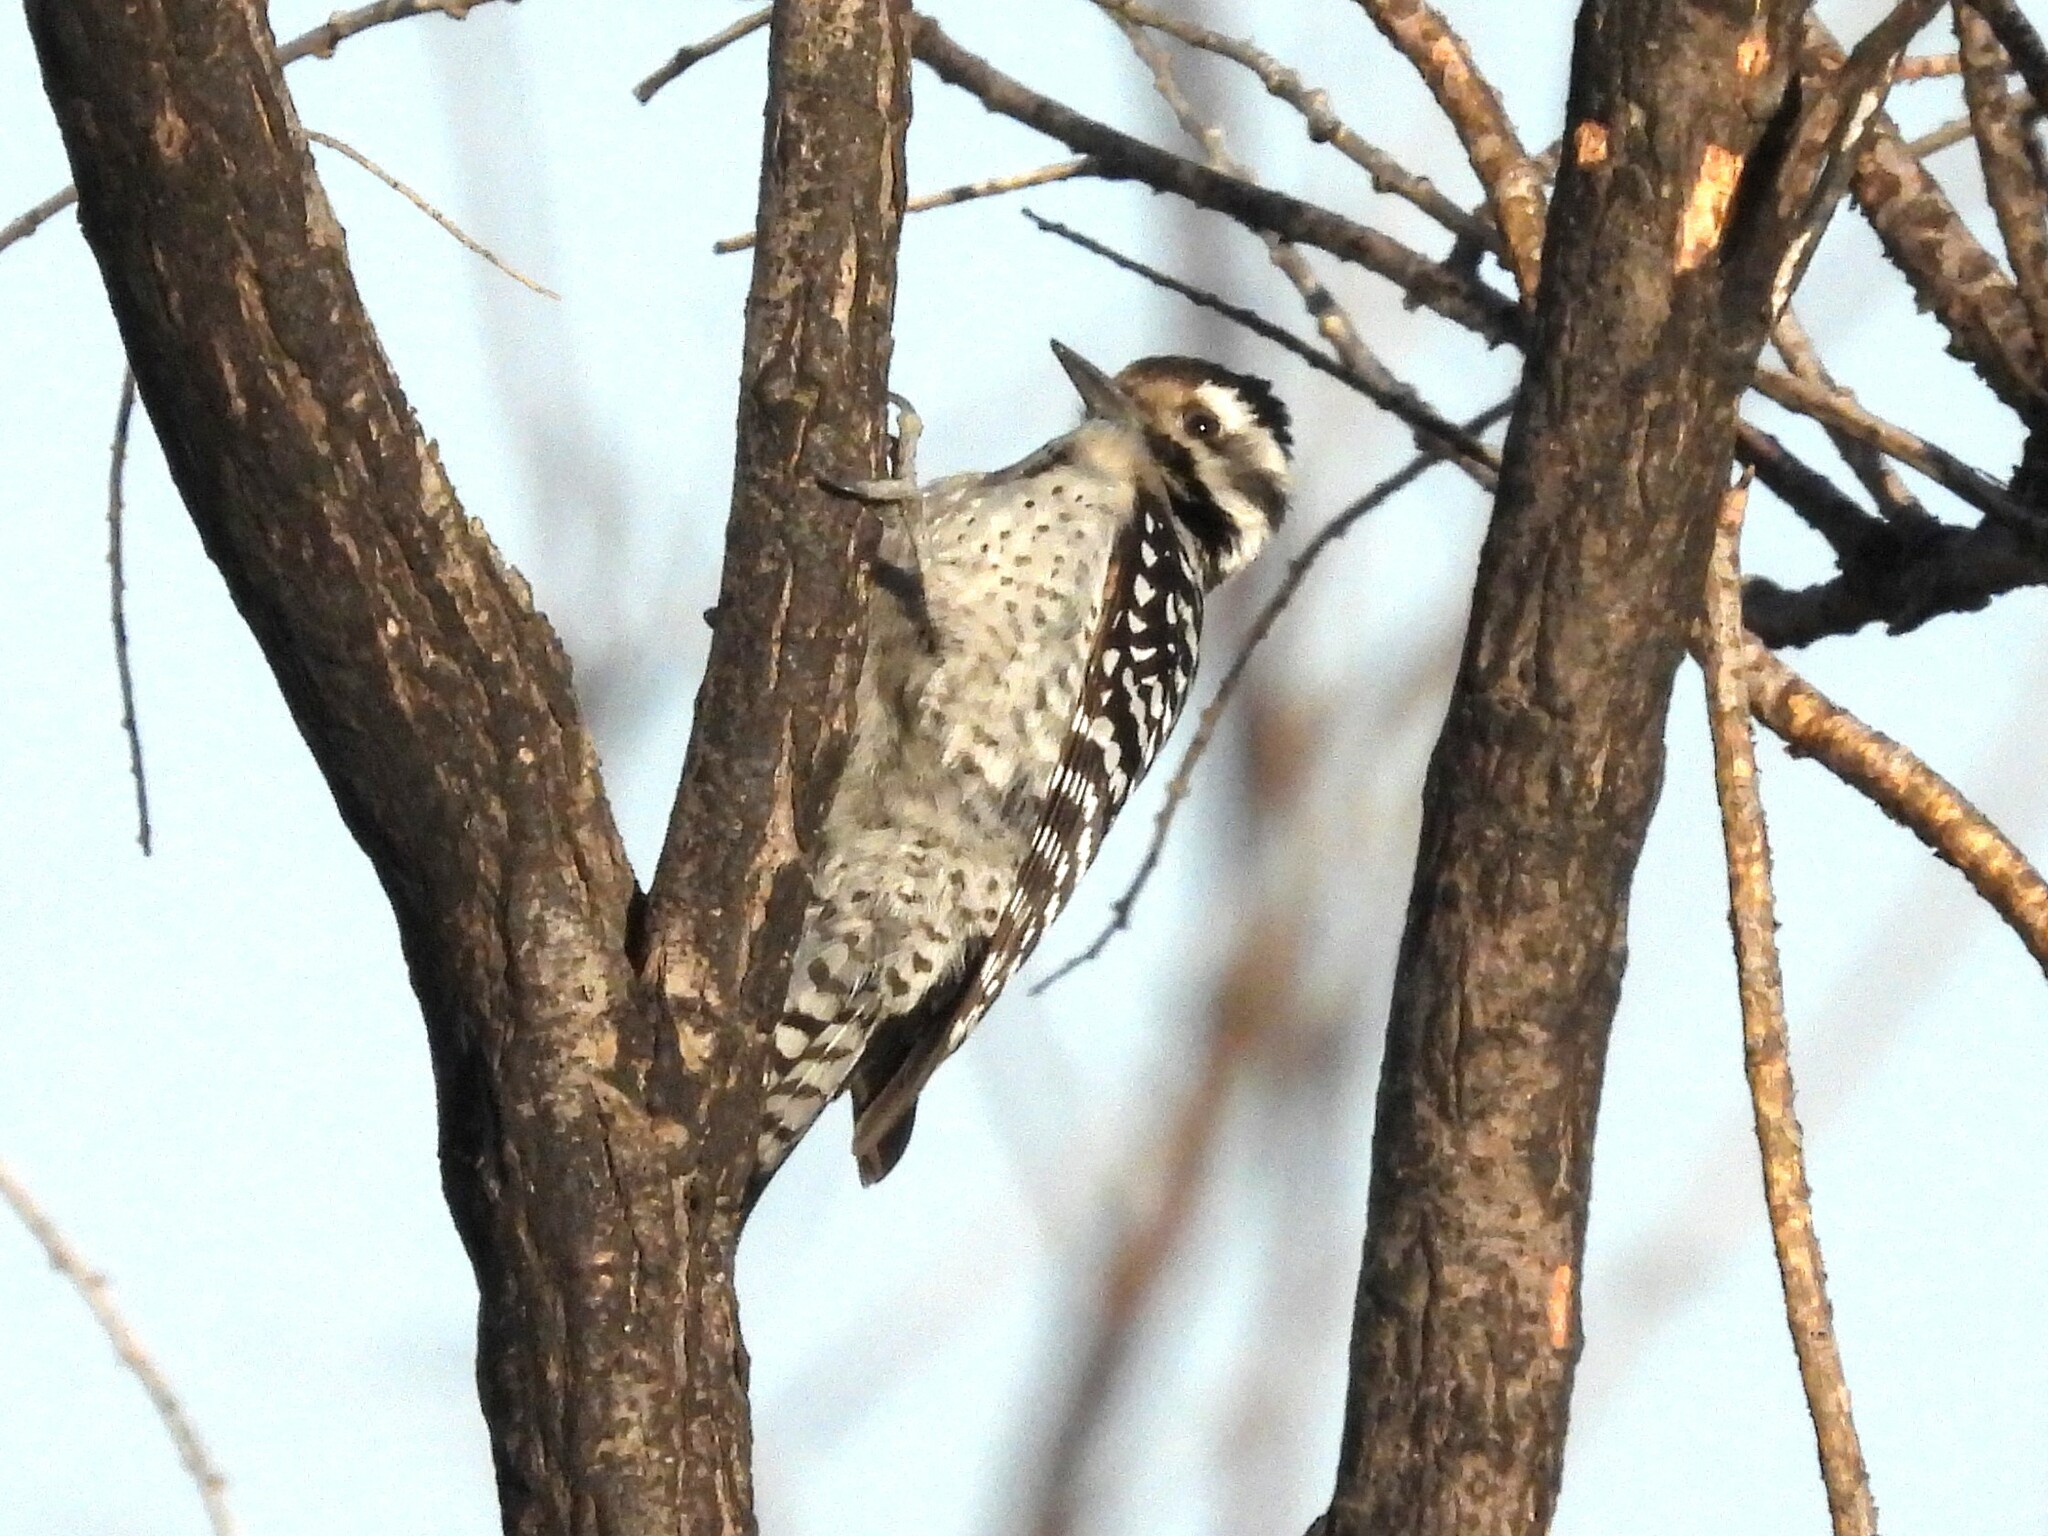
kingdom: Animalia
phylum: Chordata
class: Aves
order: Piciformes
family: Picidae
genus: Dryobates
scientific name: Dryobates scalaris
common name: Ladder-backed woodpecker
